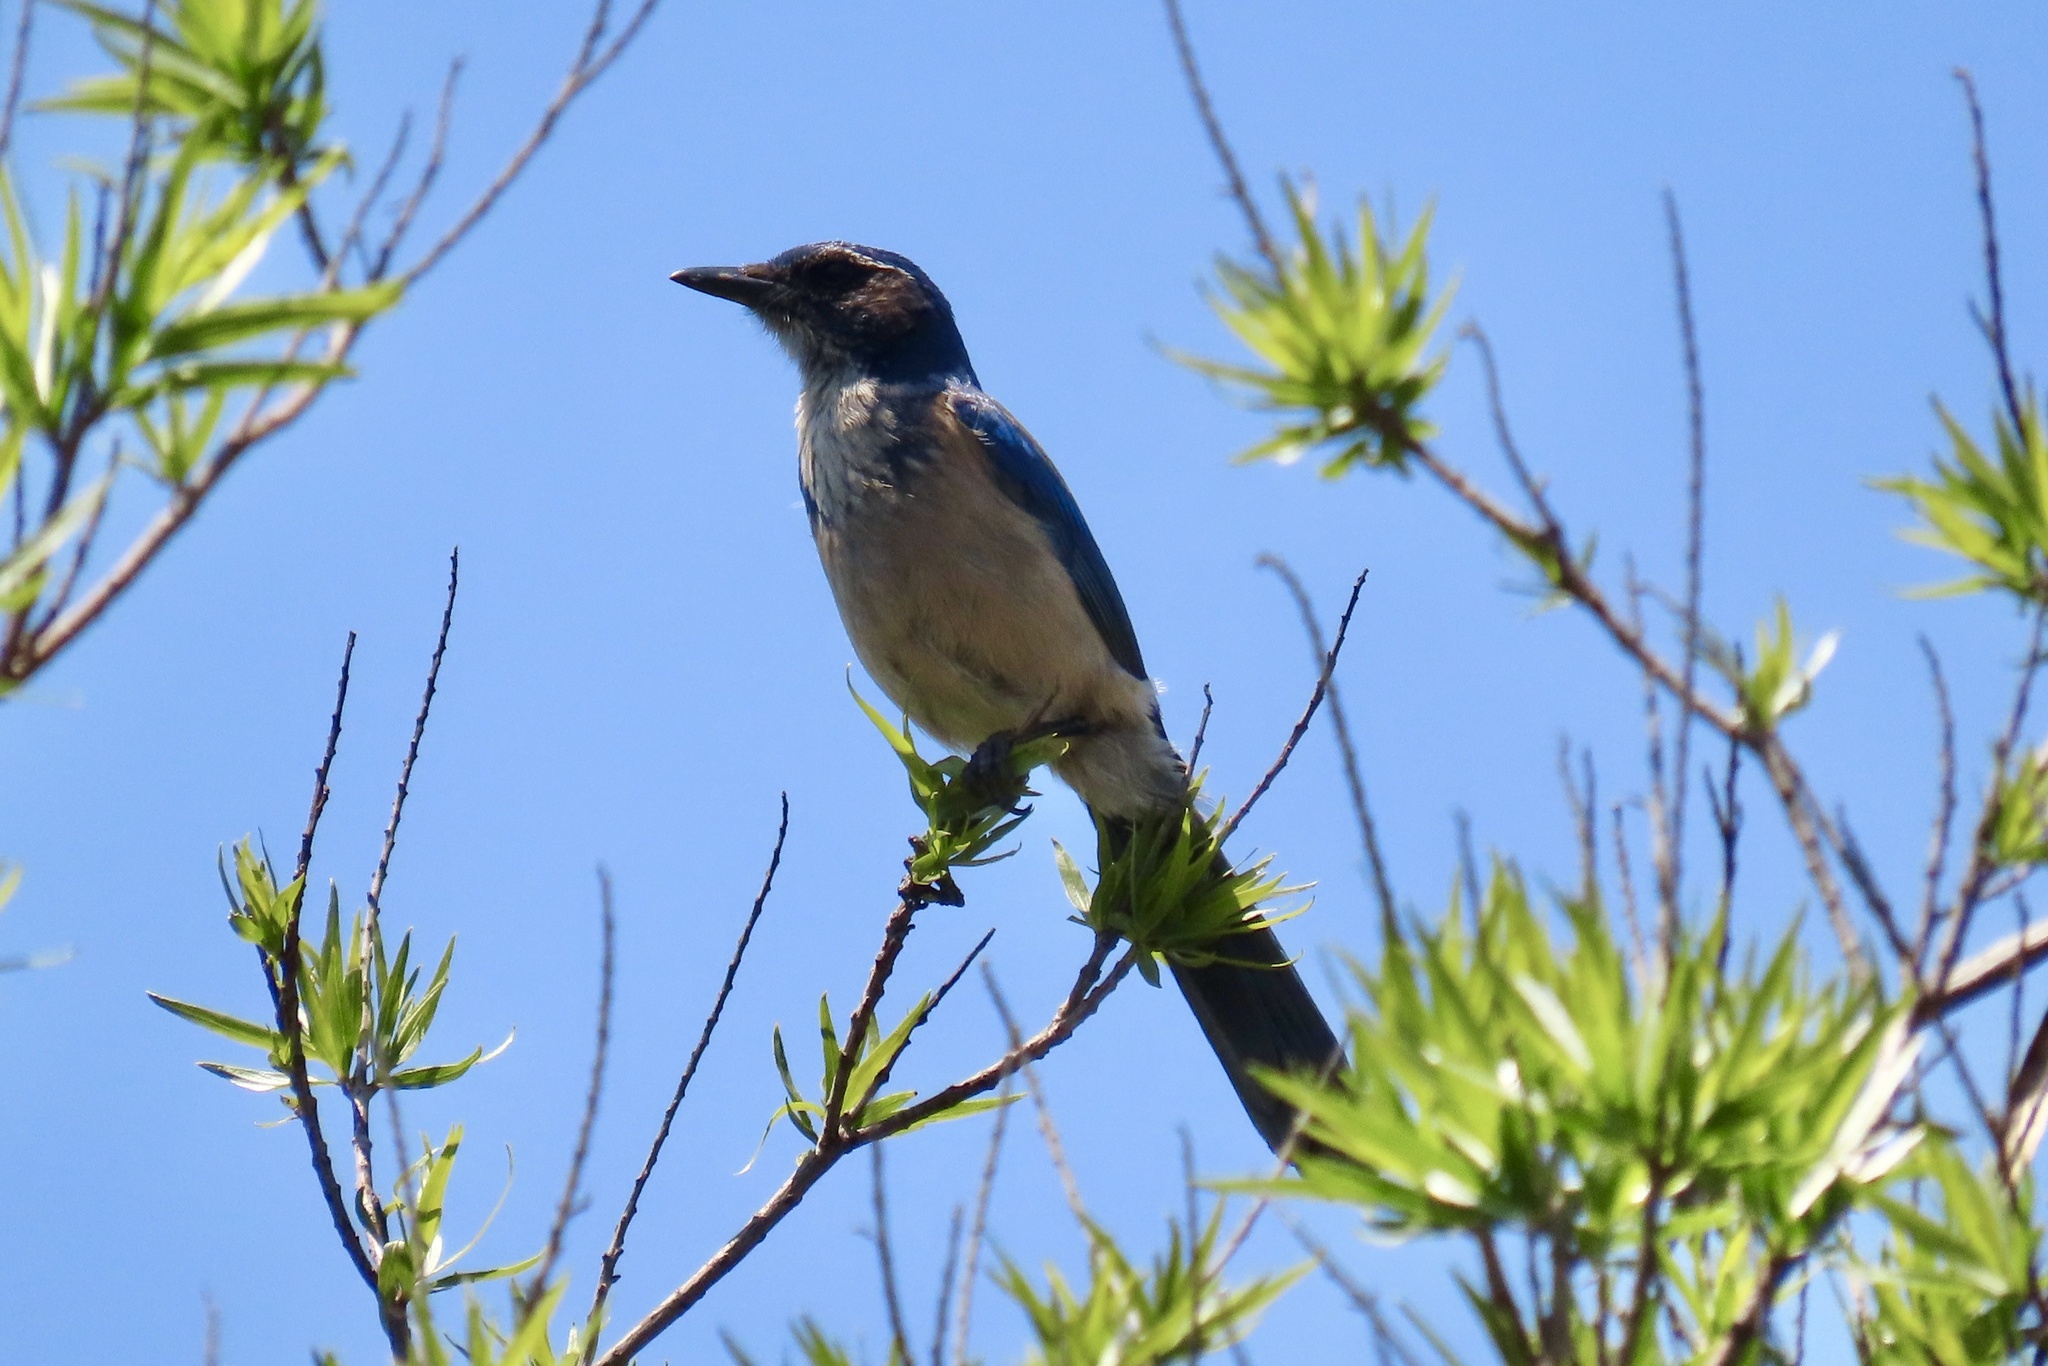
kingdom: Animalia
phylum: Chordata
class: Aves
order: Passeriformes
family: Corvidae
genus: Aphelocoma
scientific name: Aphelocoma californica
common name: California scrub-jay
